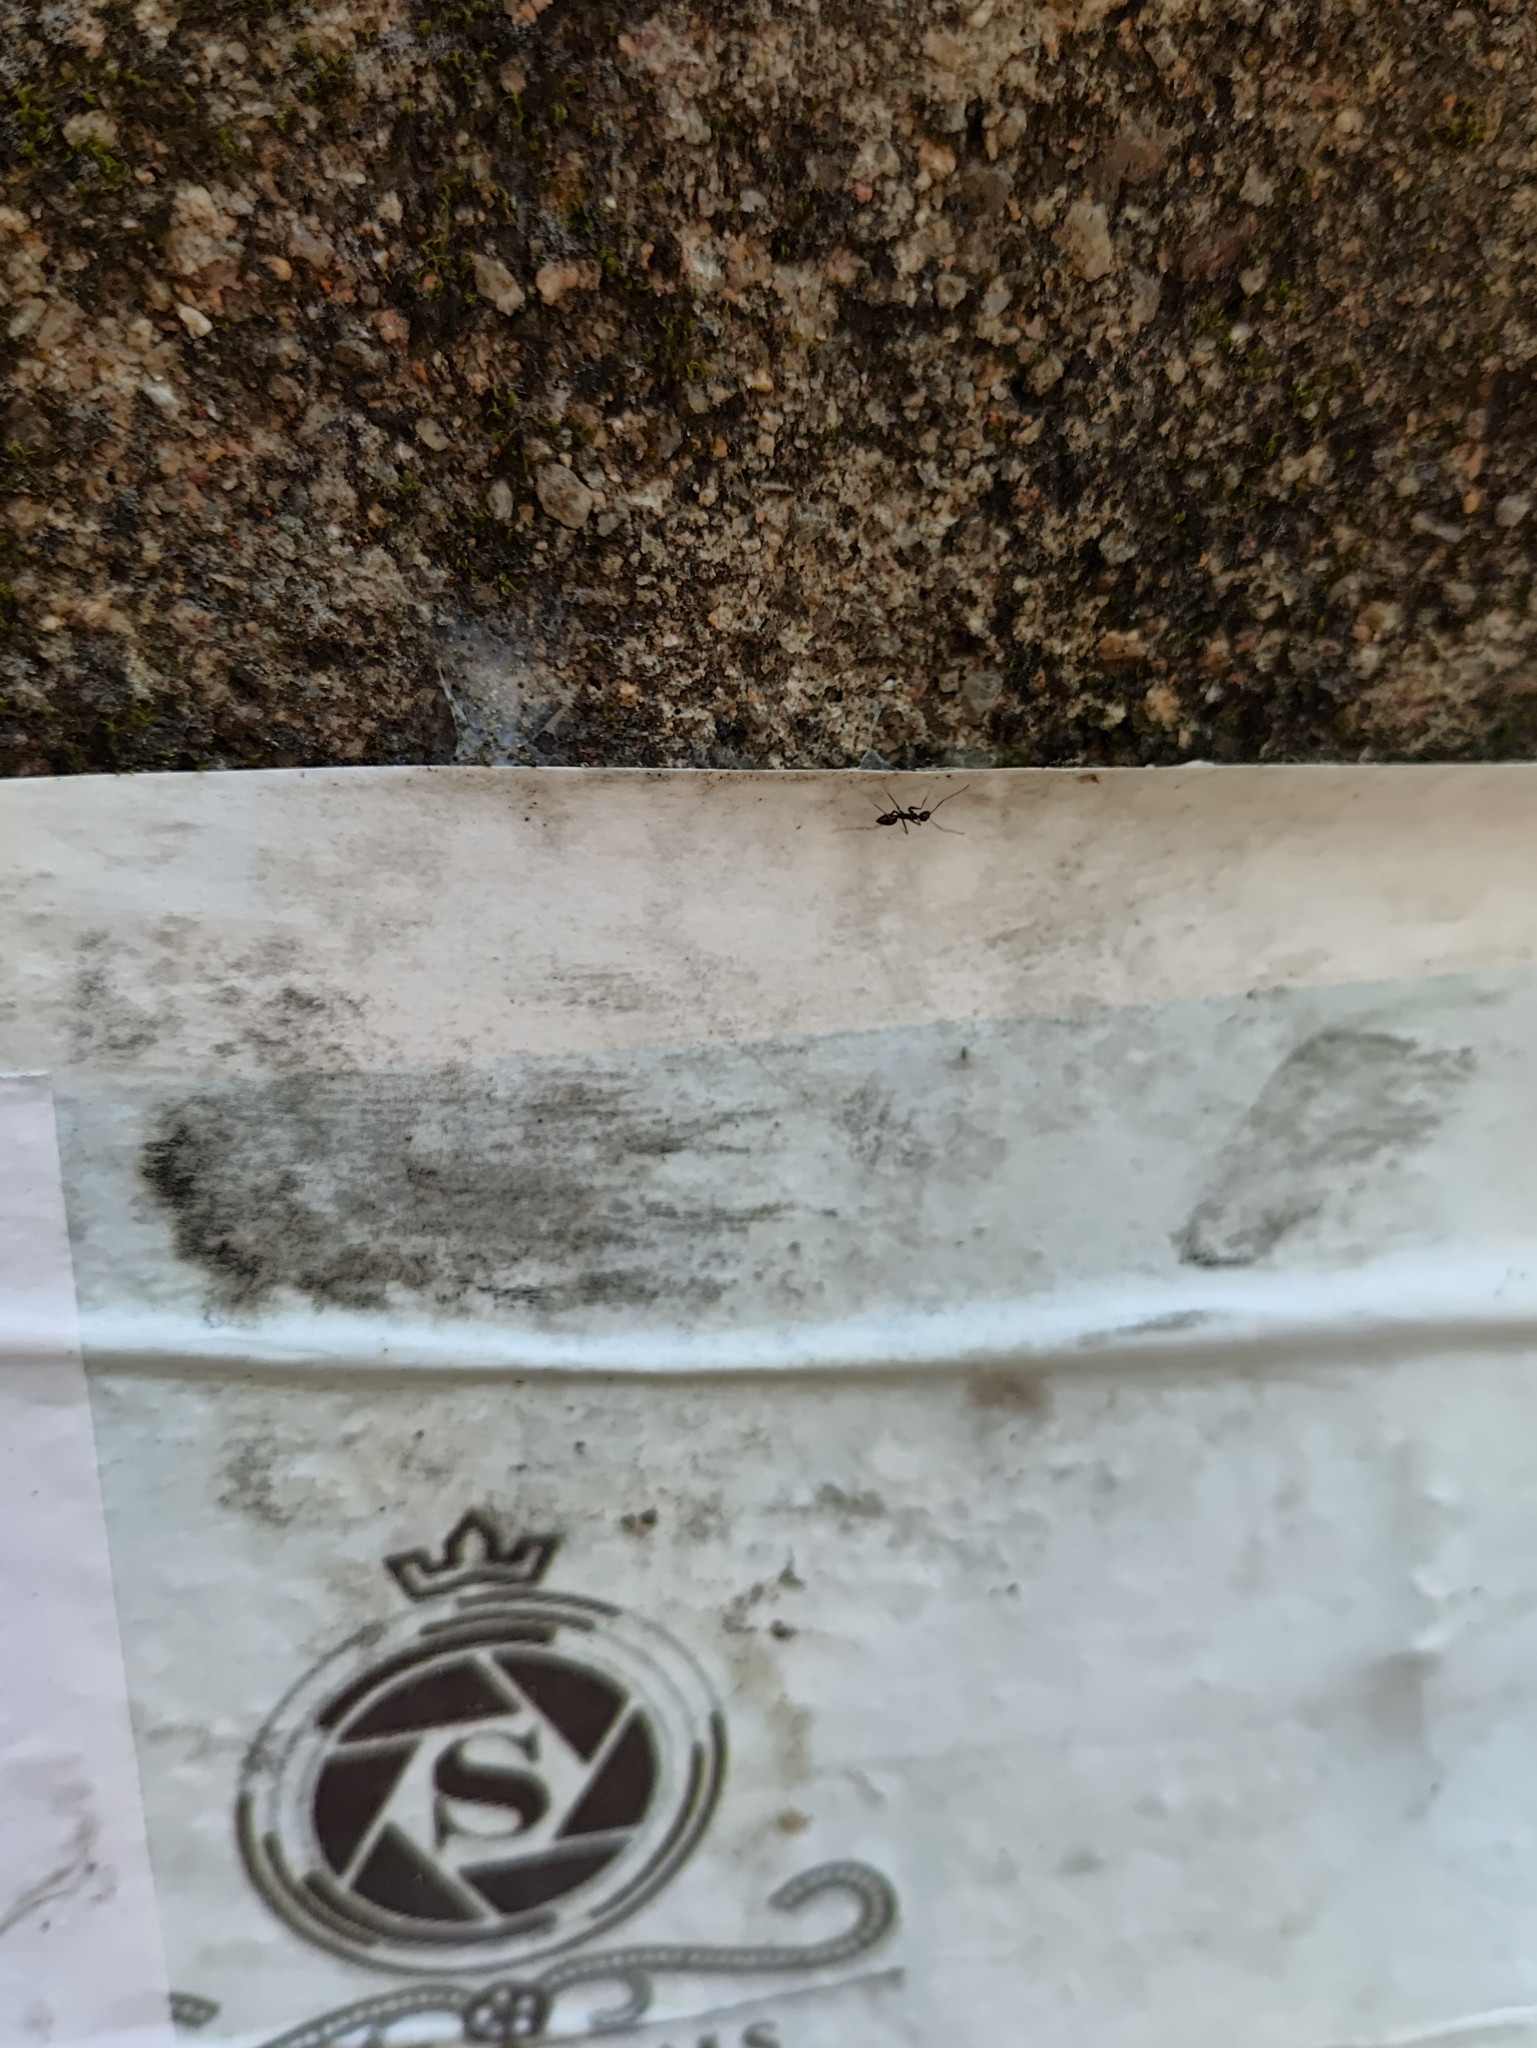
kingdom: Animalia
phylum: Arthropoda
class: Insecta
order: Hymenoptera
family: Formicidae
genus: Paratrechina
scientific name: Paratrechina longicornis
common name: Longhorned crazy ant
